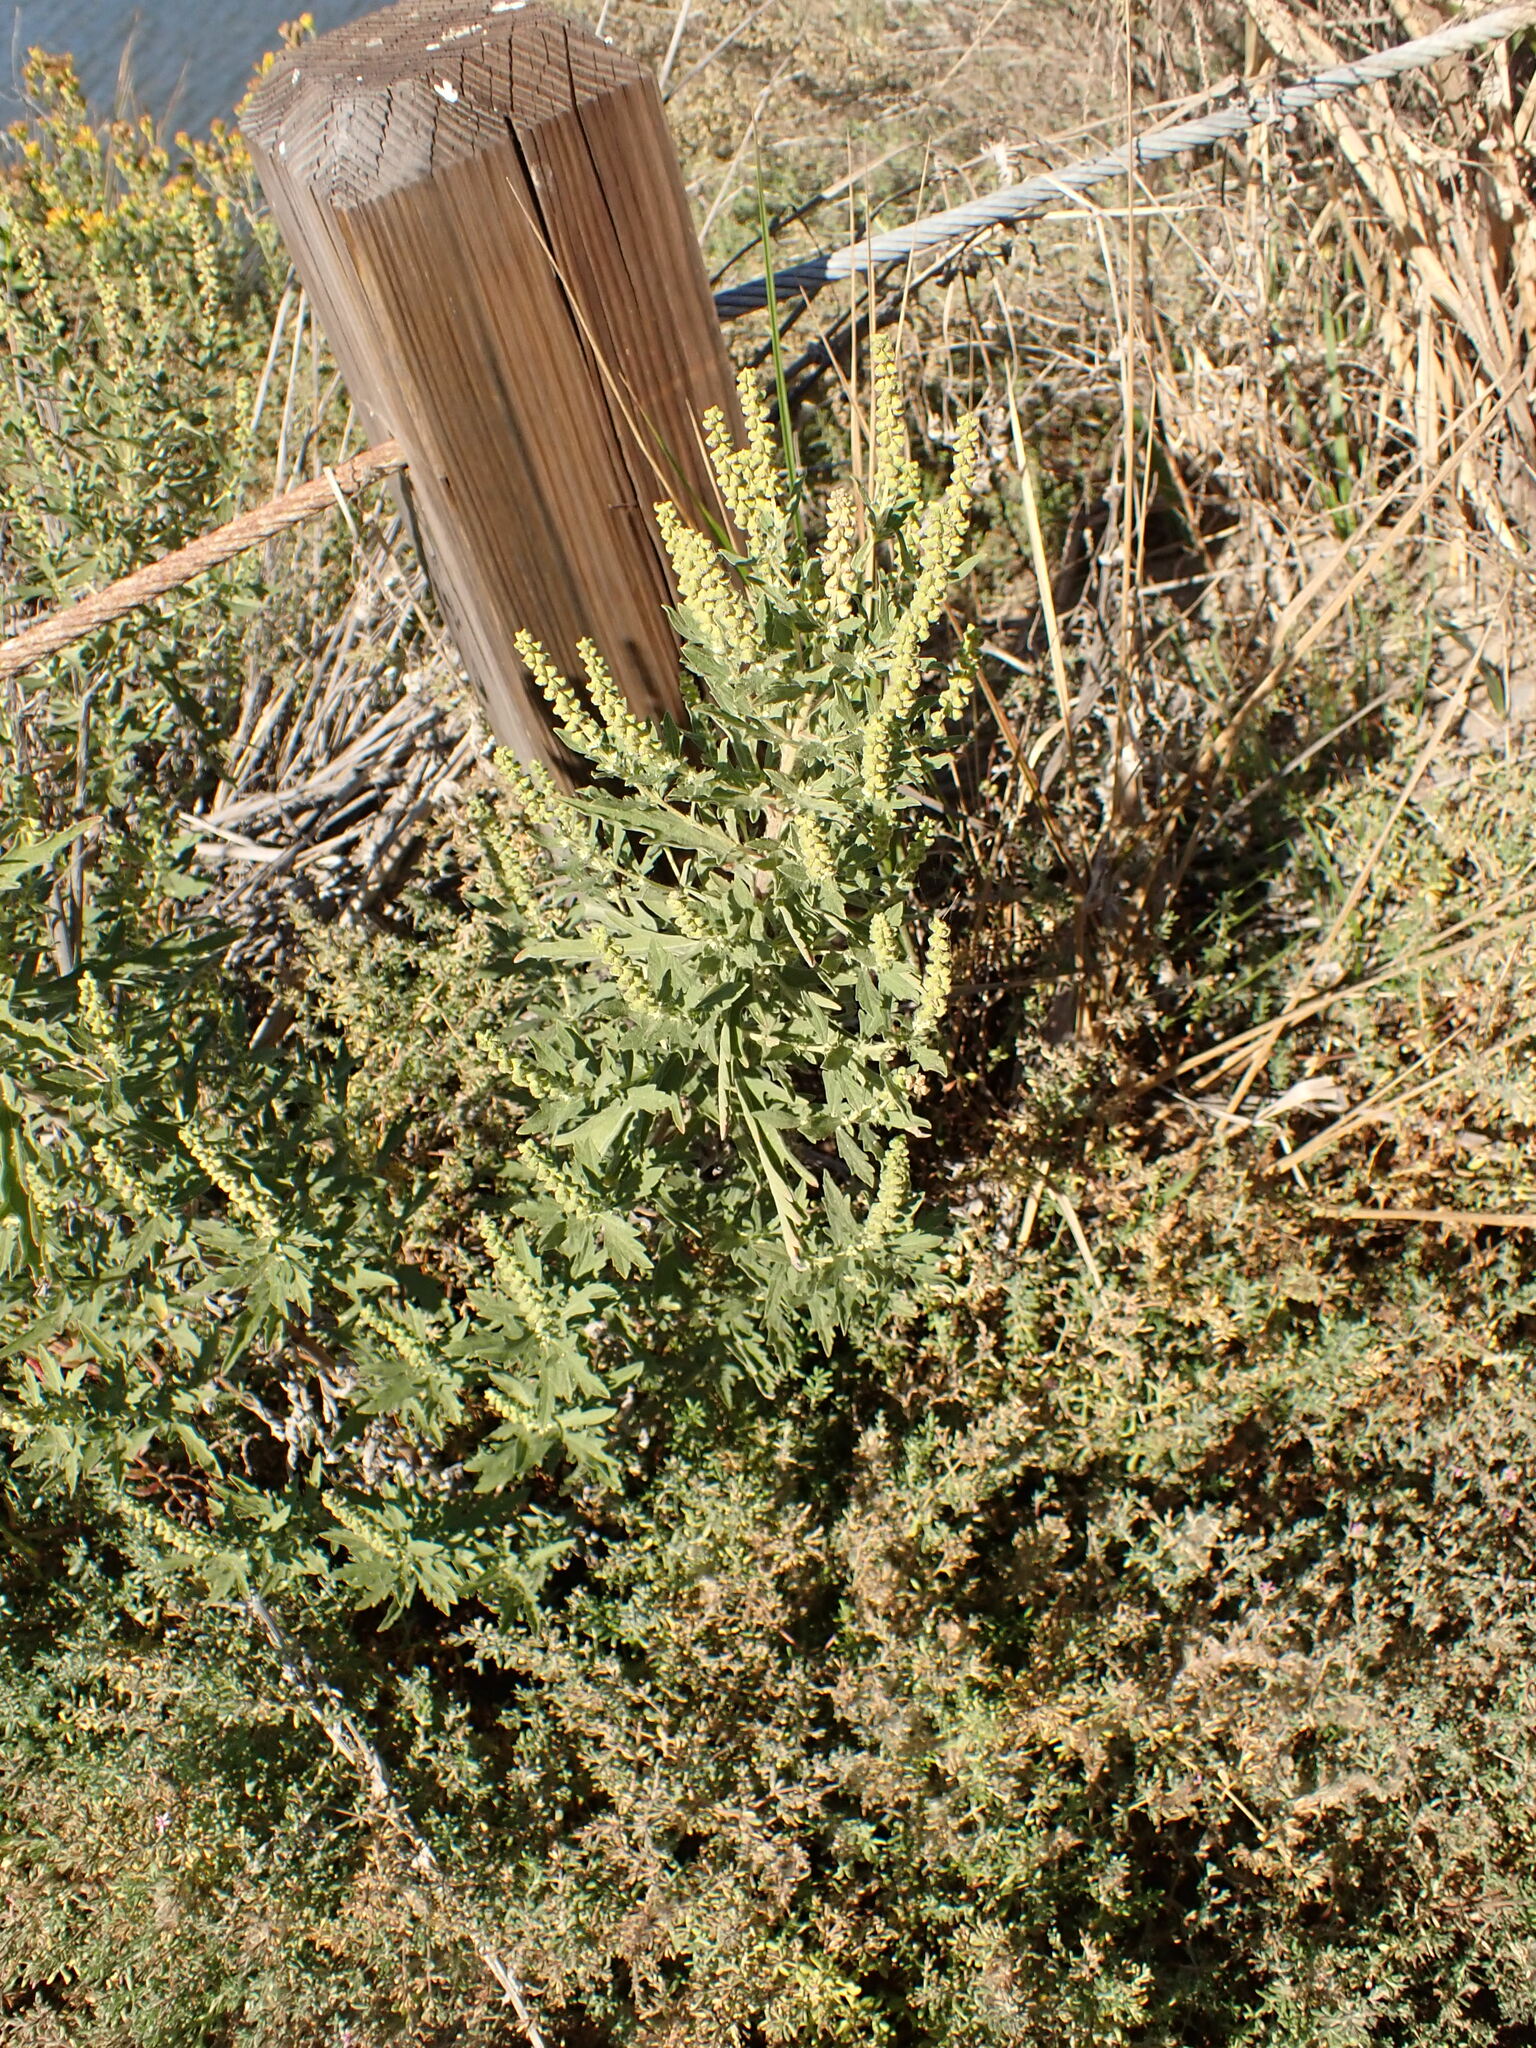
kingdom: Plantae
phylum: Tracheophyta
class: Magnoliopsida
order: Asterales
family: Asteraceae
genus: Ambrosia
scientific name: Ambrosia psilostachya
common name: Perennial ragweed
